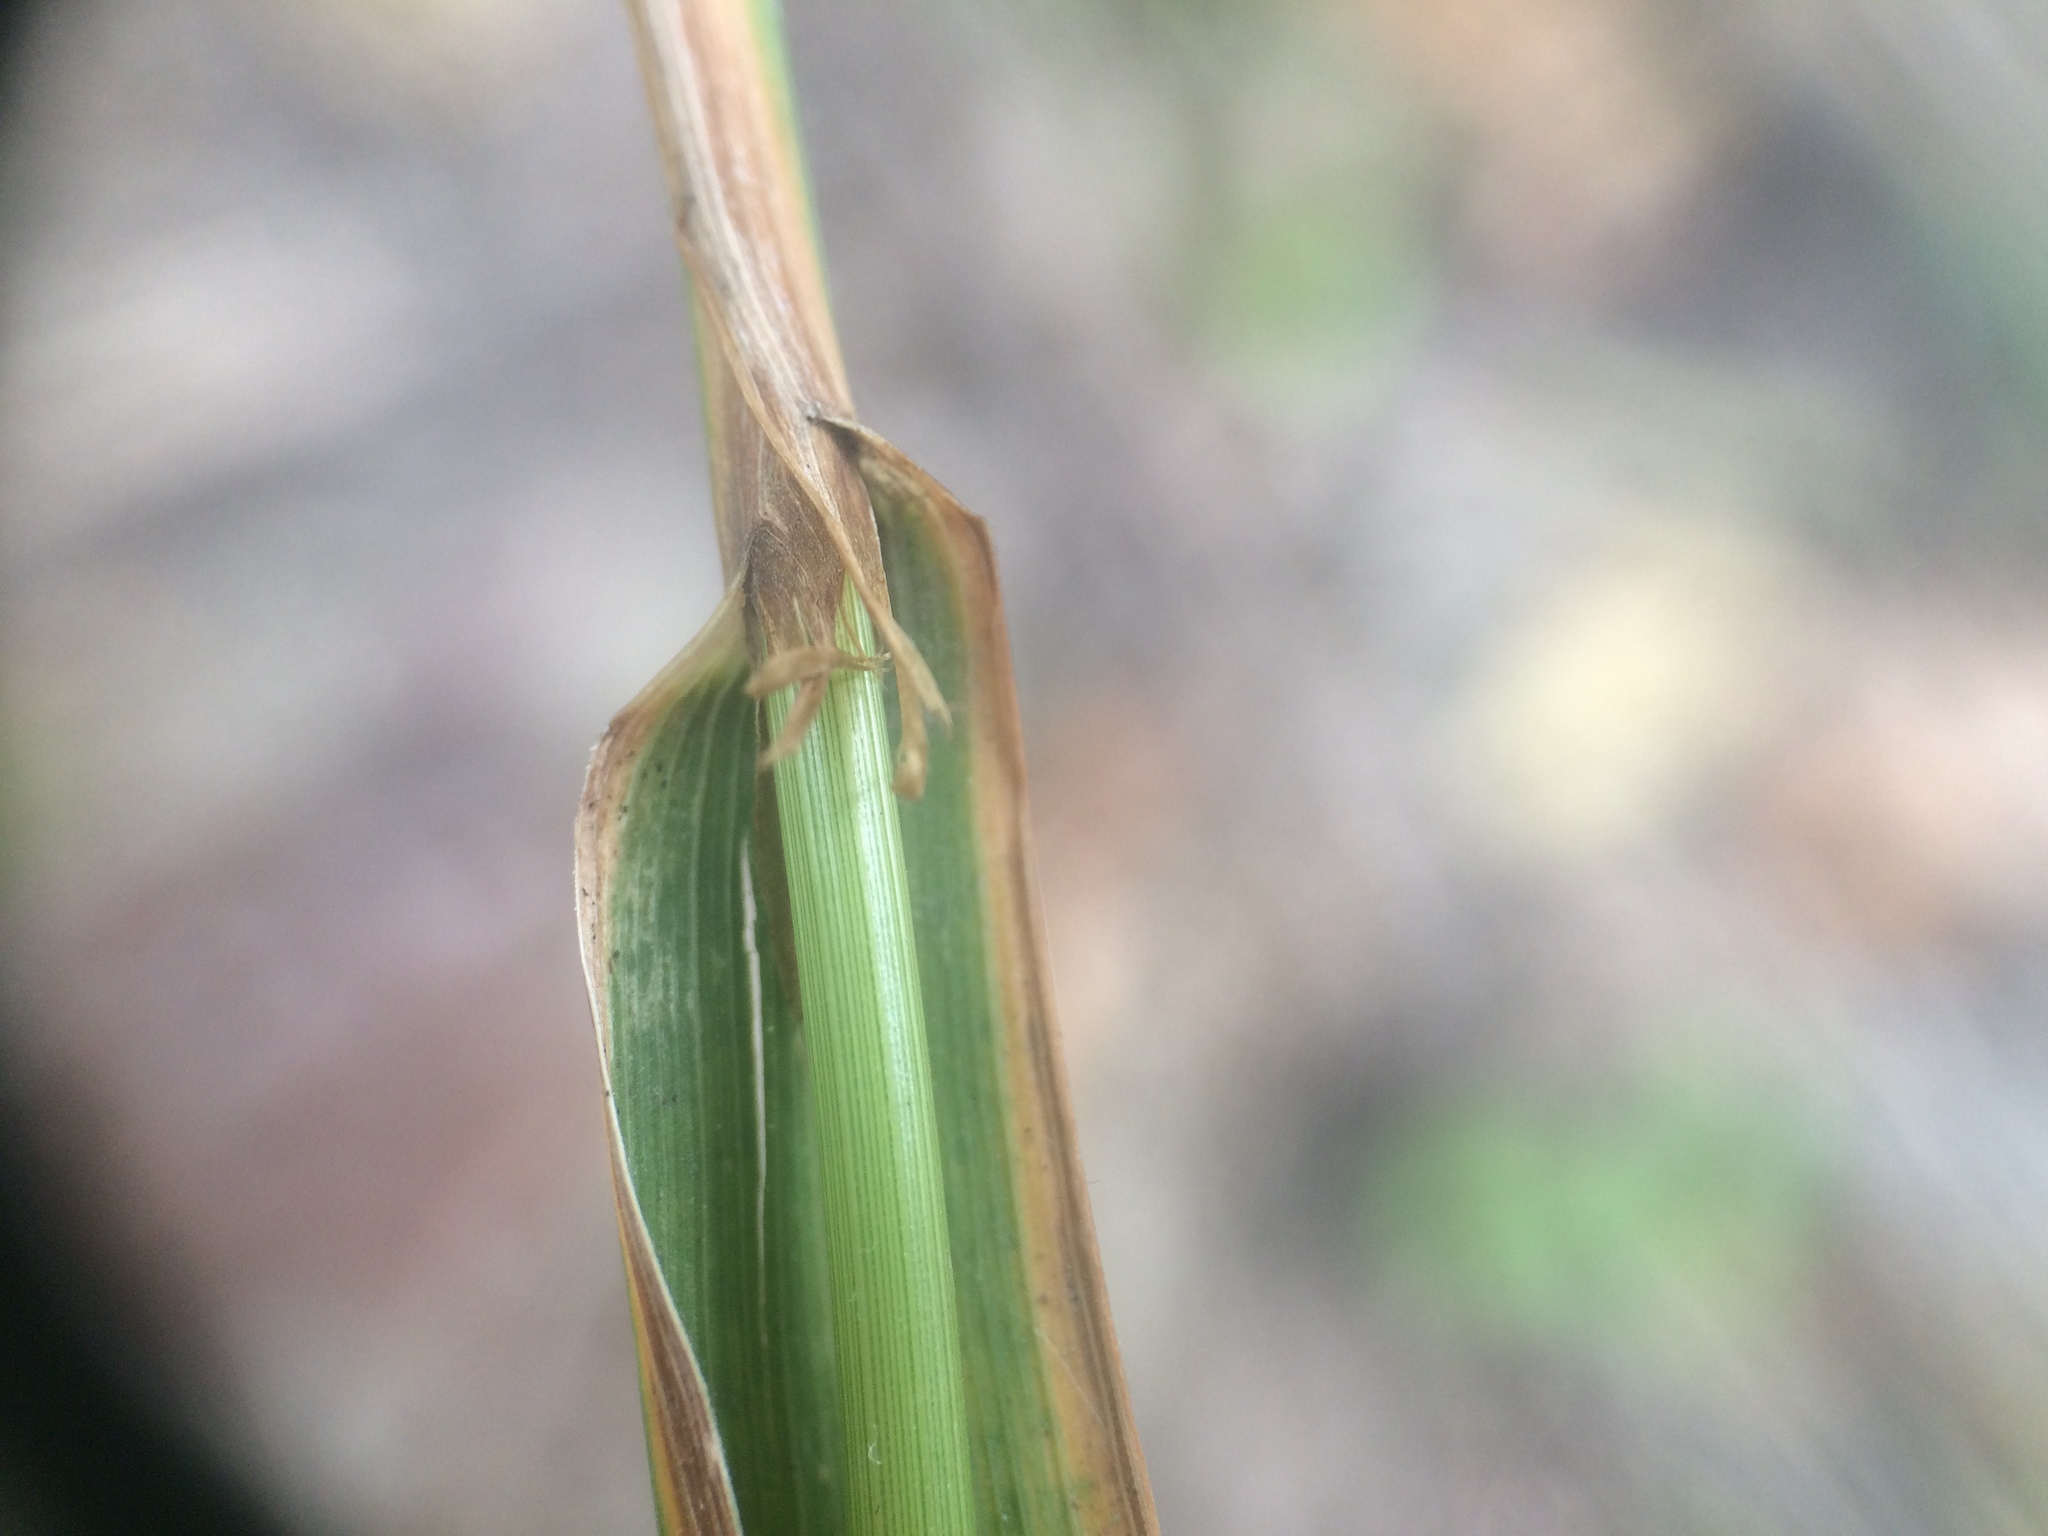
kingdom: Plantae
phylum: Tracheophyta
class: Liliopsida
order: Poales
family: Poaceae
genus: Cinna
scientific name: Cinna arundinacea
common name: Stout woodreed
